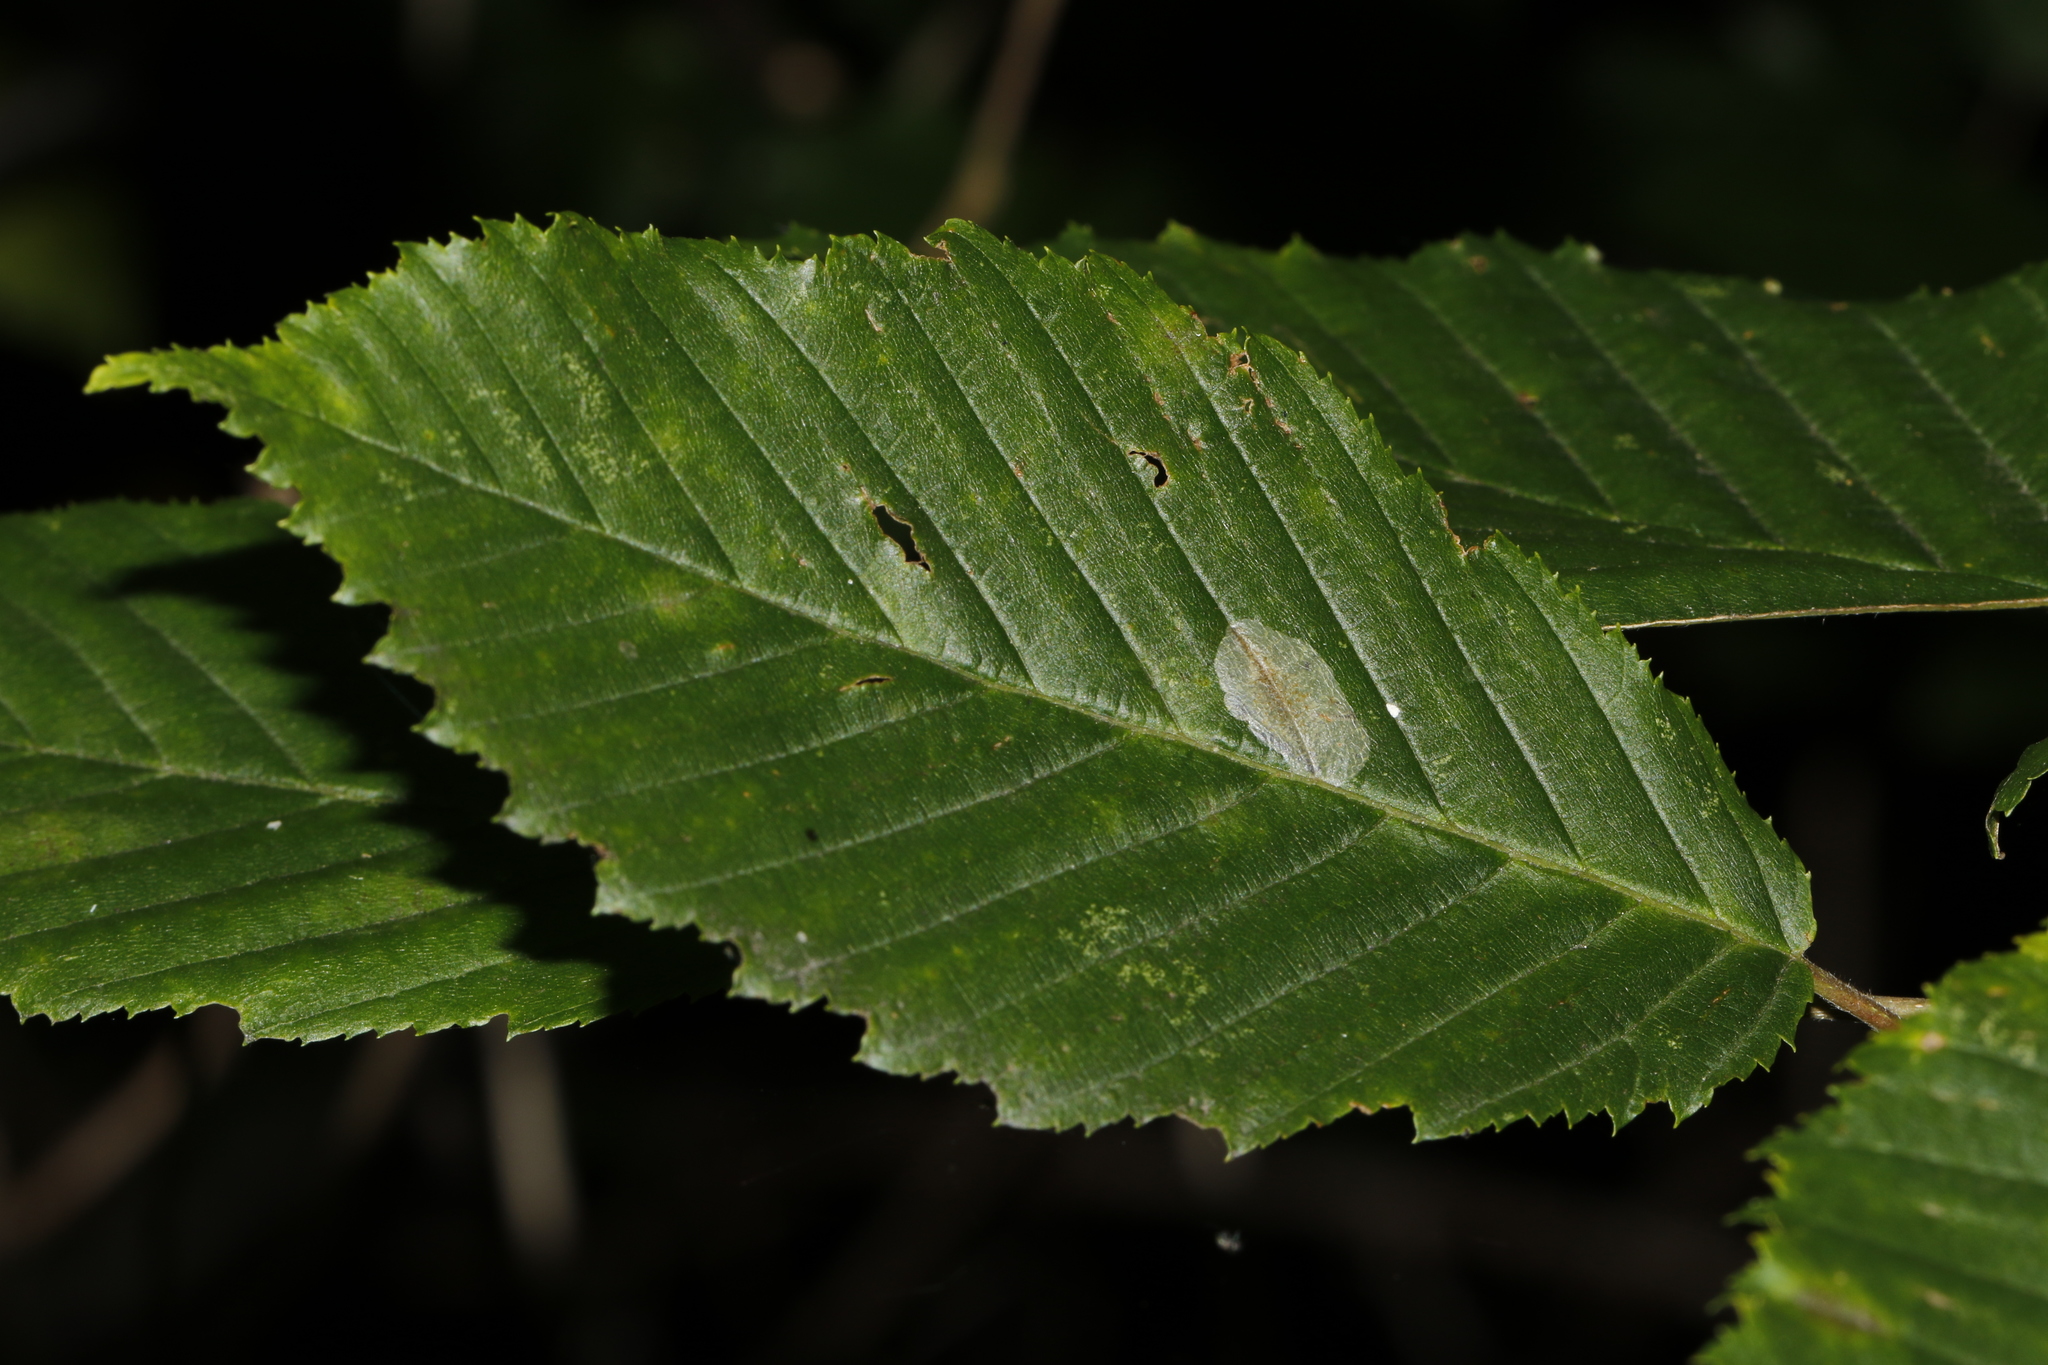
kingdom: Animalia
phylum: Arthropoda
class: Insecta
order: Hymenoptera
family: Tenthredinidae
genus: Fenusa
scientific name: Fenusa ulmi
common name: Elm leafminer
